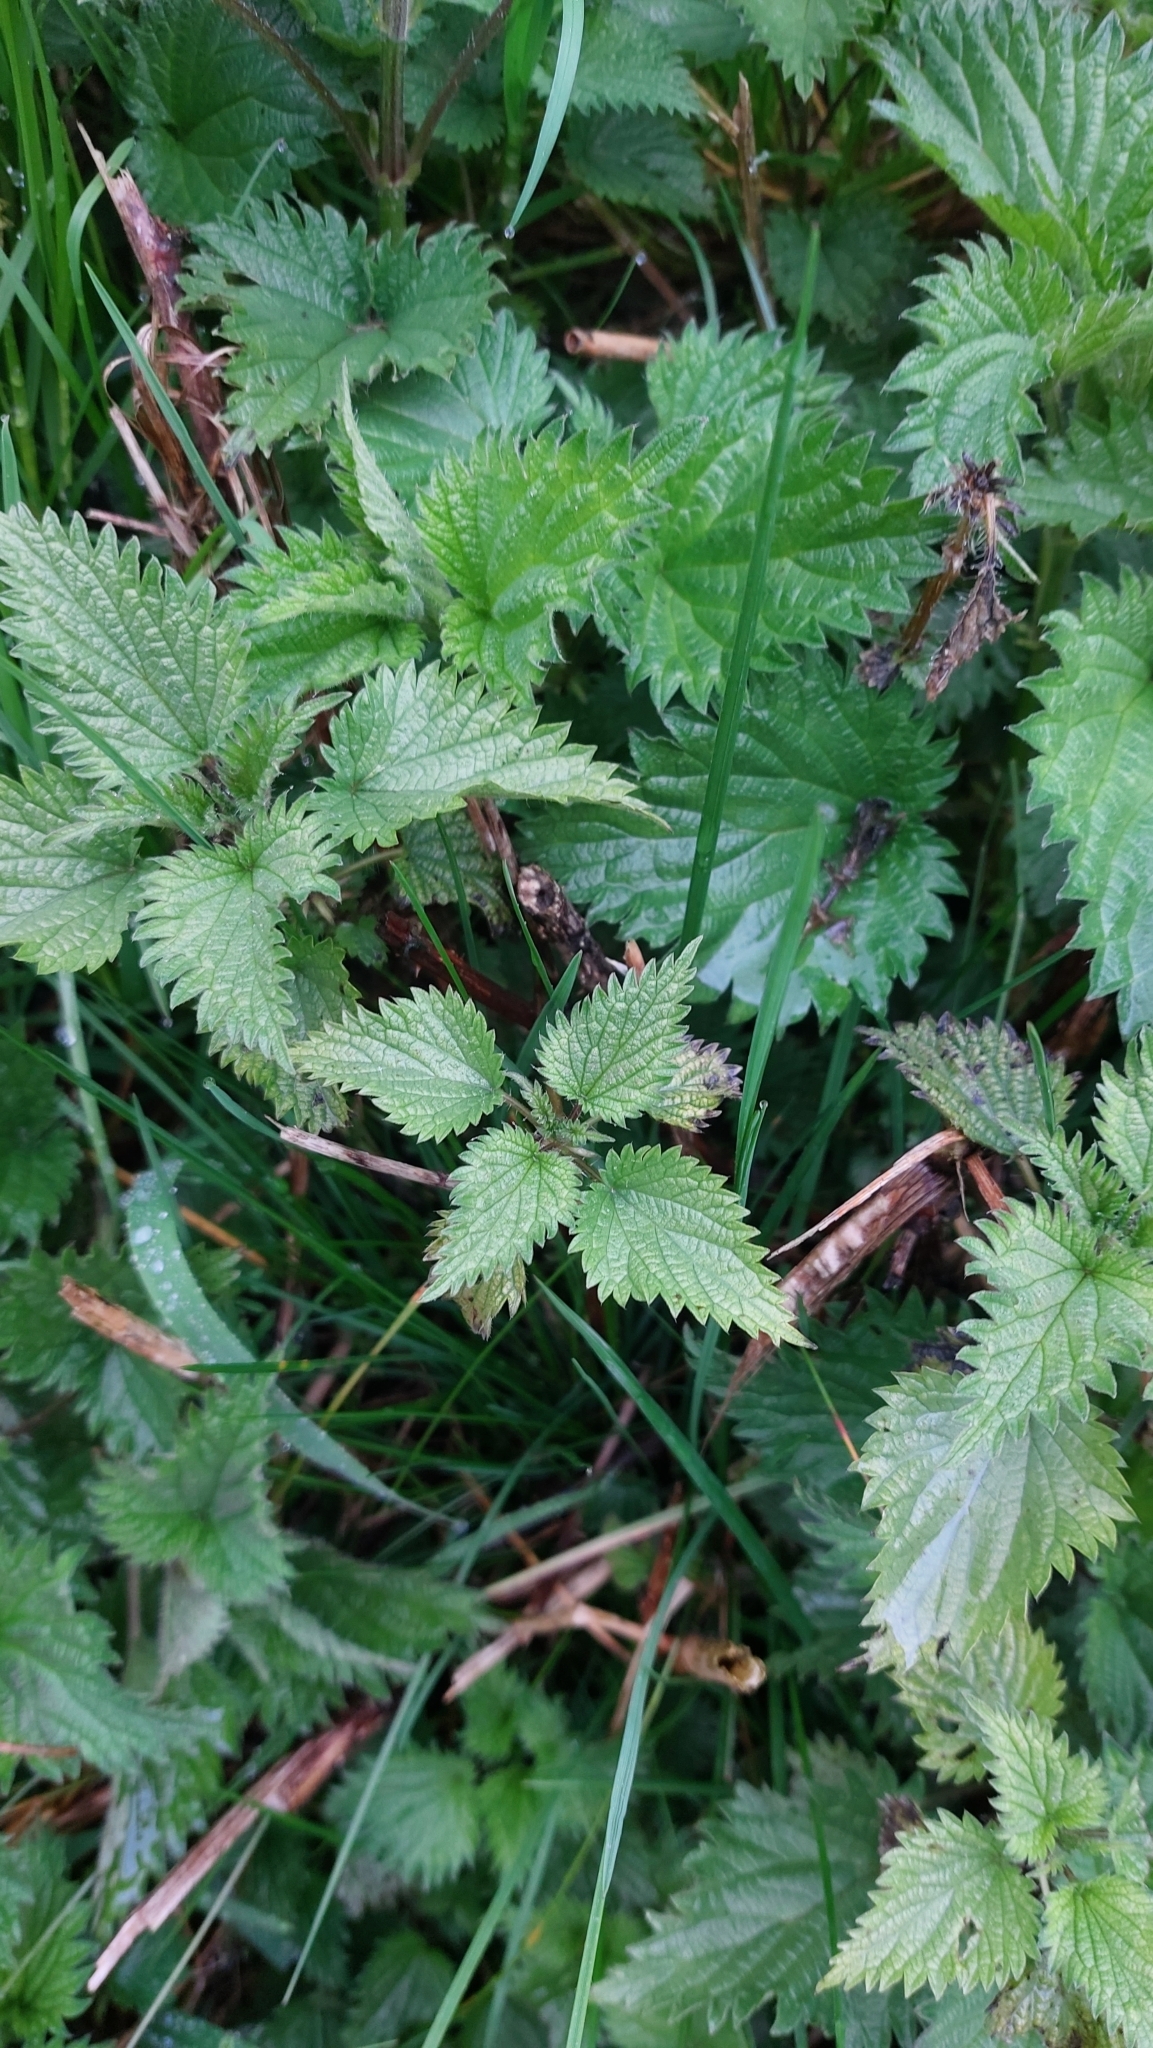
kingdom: Plantae
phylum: Tracheophyta
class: Magnoliopsida
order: Rosales
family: Urticaceae
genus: Urtica
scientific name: Urtica dioica
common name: Common nettle
